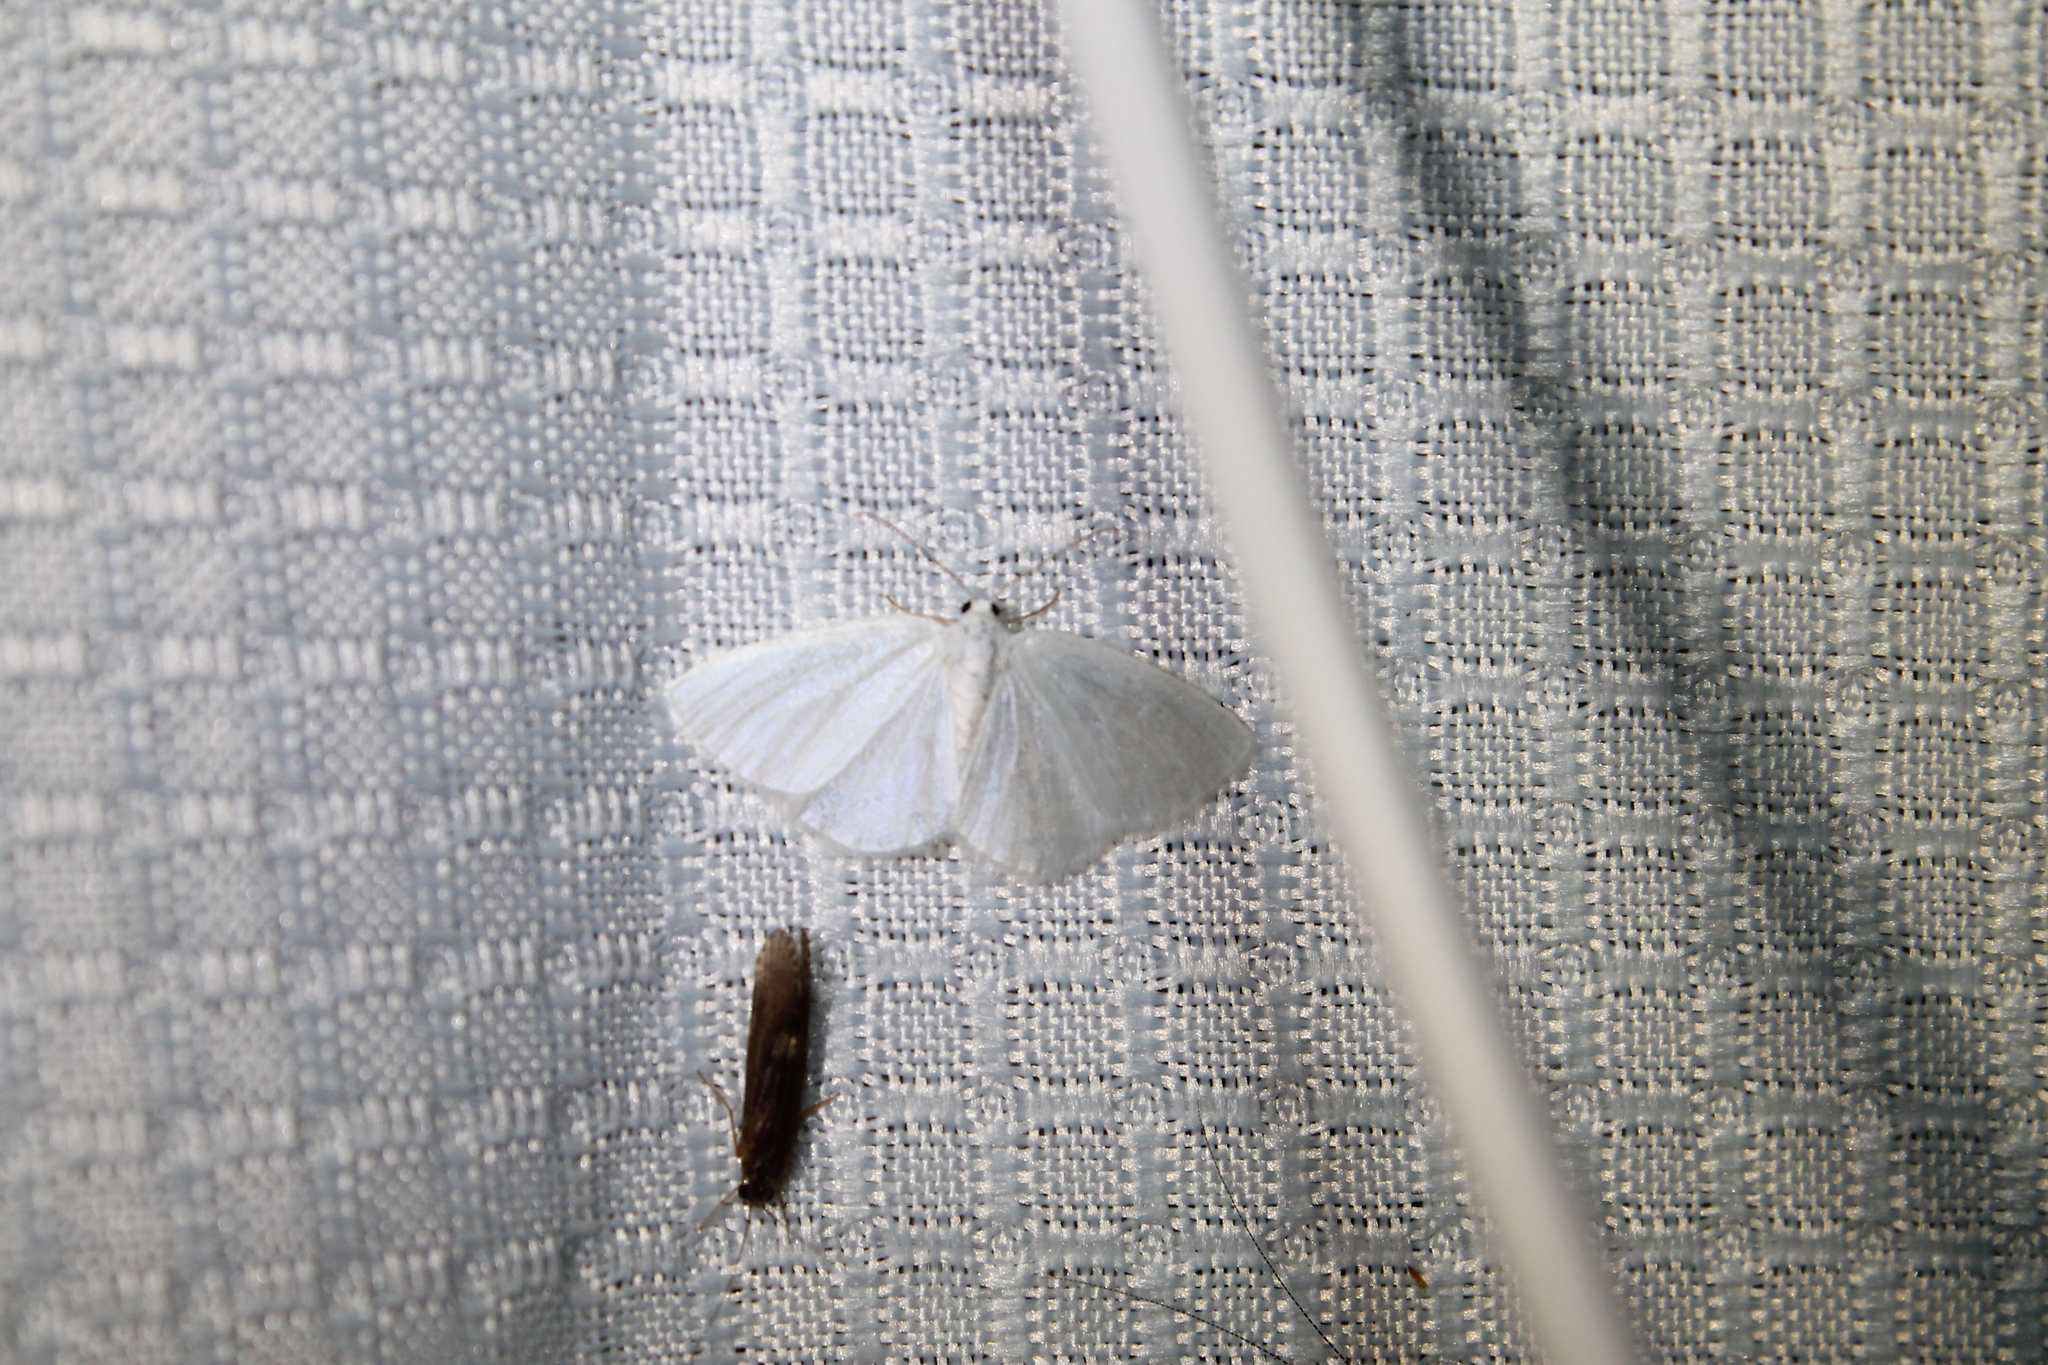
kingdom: Animalia
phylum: Arthropoda
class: Insecta
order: Lepidoptera
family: Geometridae
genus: Lomographa
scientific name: Lomographa vestaliata
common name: White spring moth
